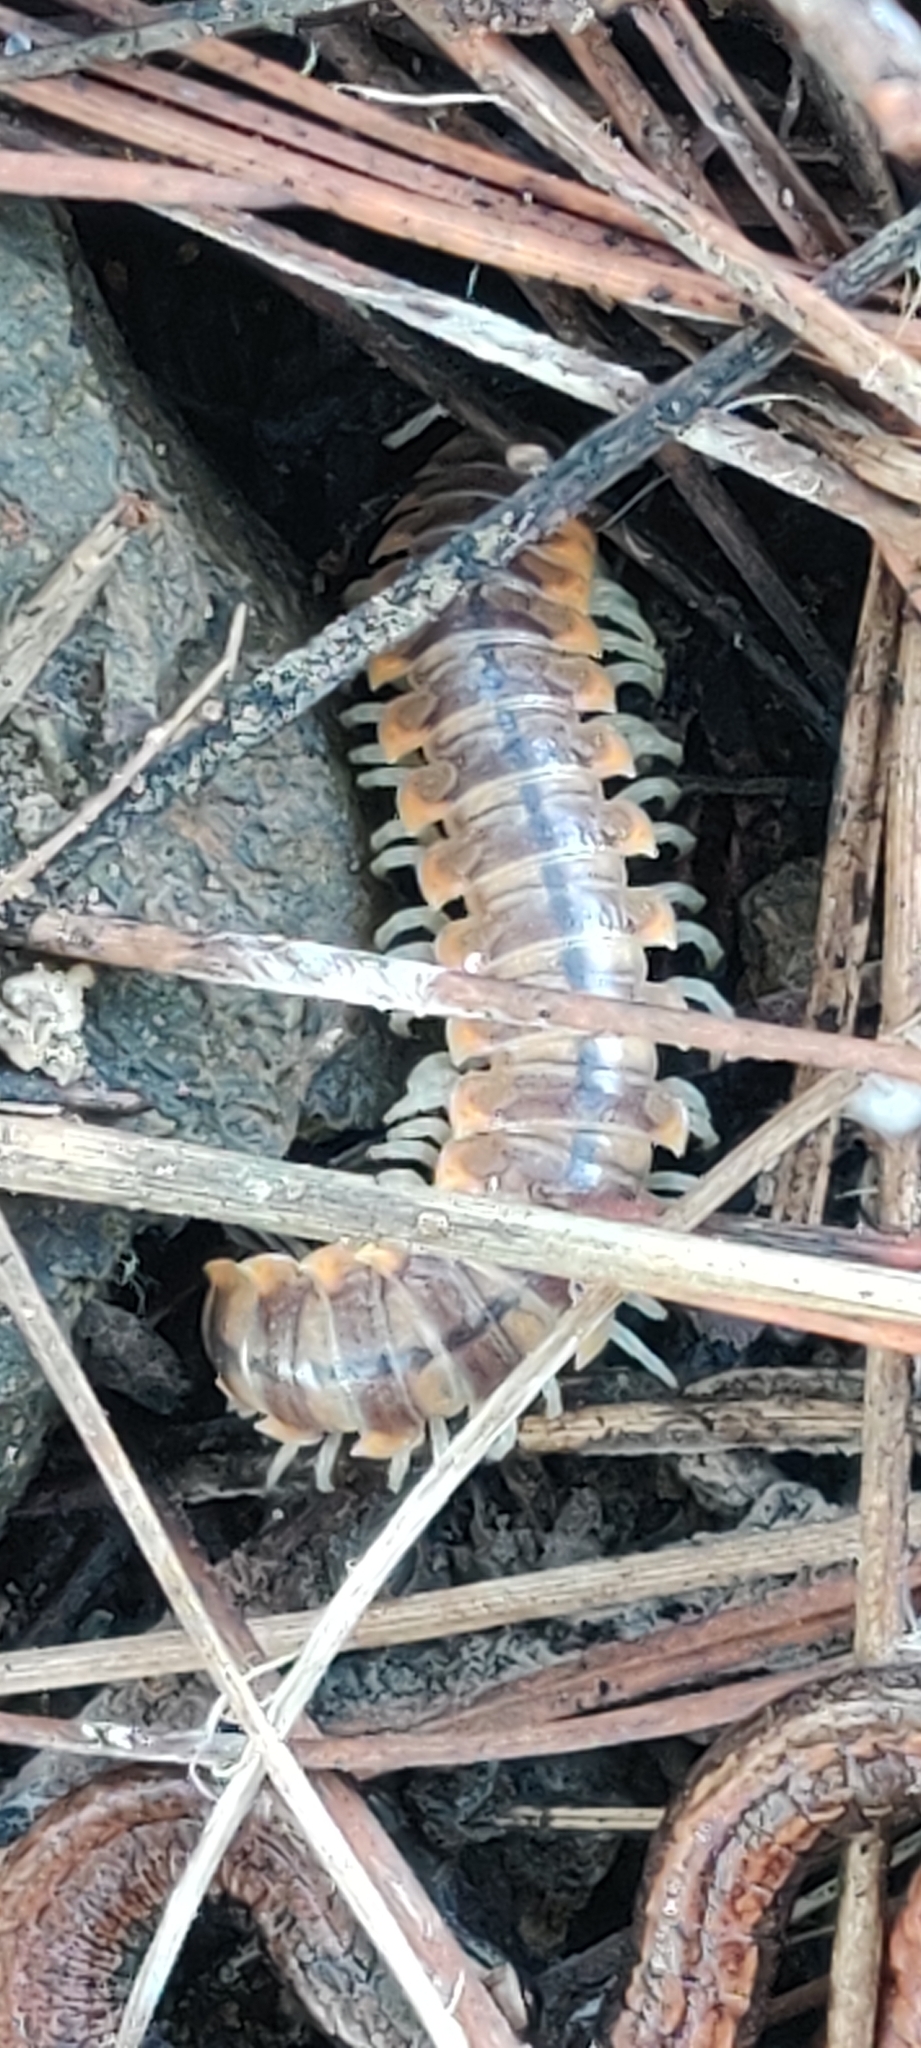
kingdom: Animalia
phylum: Arthropoda
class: Diplopoda
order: Polydesmida
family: Xystodesmidae
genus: Xystocheir
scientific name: Xystocheir dissecta
